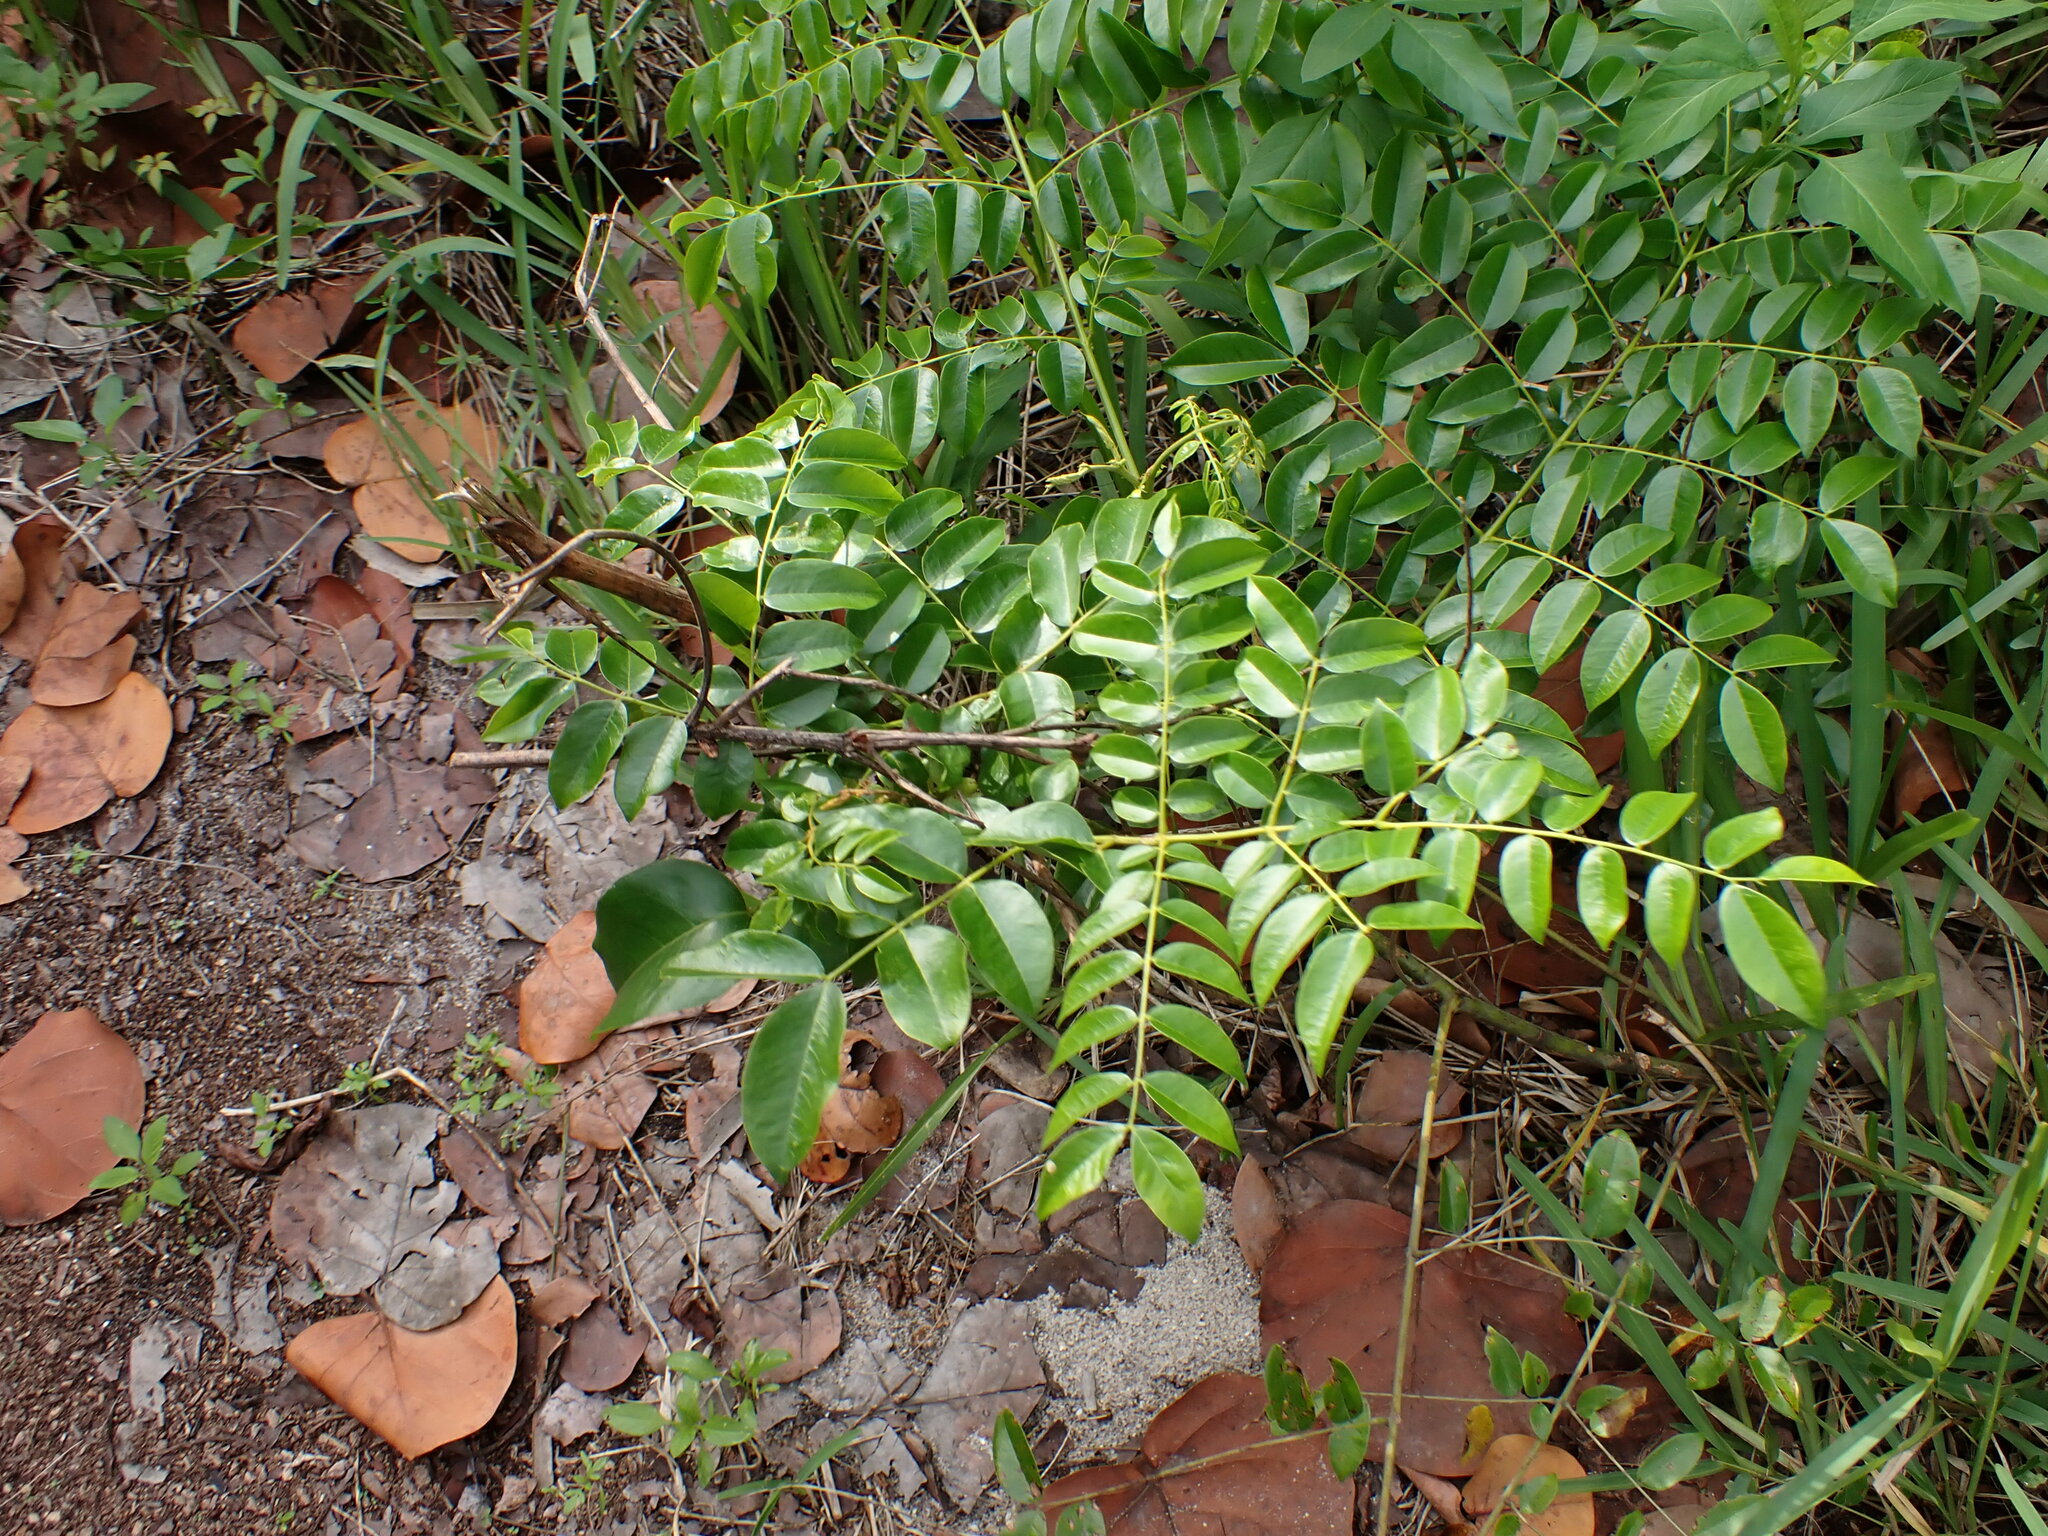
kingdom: Plantae
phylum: Tracheophyta
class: Magnoliopsida
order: Fabales
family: Fabaceae
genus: Guilandina
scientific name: Guilandina bonduc
